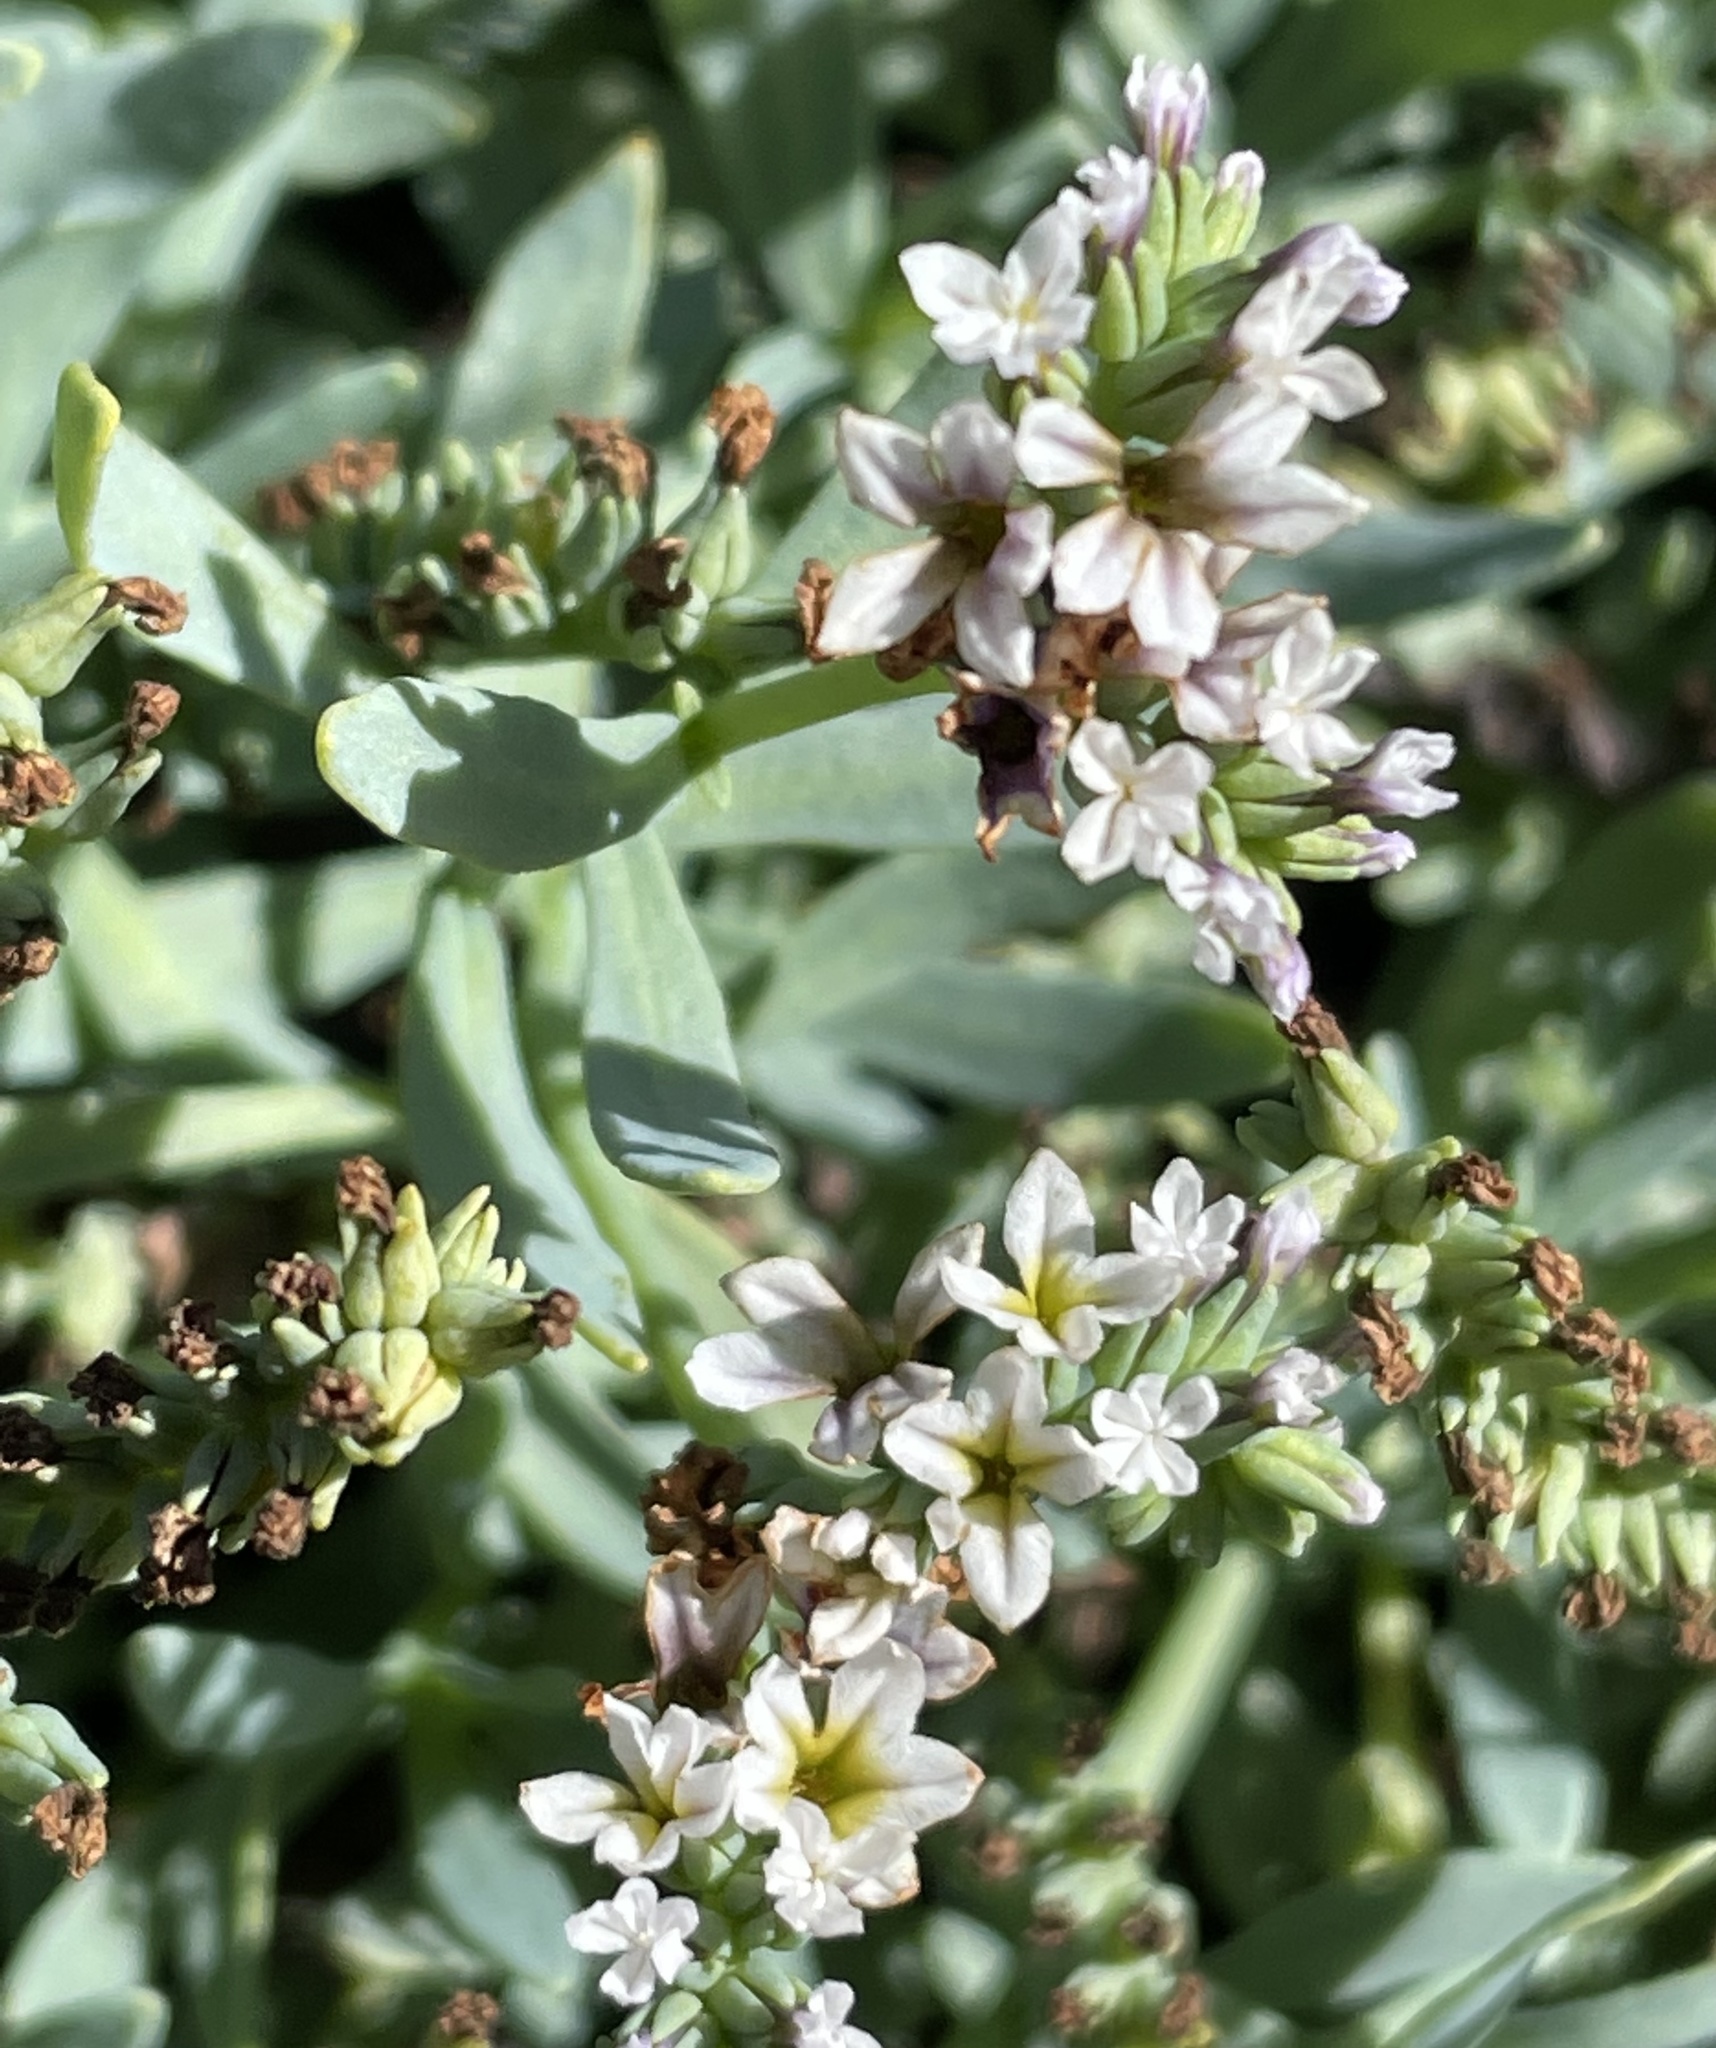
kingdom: Plantae
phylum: Tracheophyta
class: Magnoliopsida
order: Boraginales
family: Heliotropiaceae
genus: Heliotropium
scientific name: Heliotropium curassavicum
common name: Seaside heliotrope
